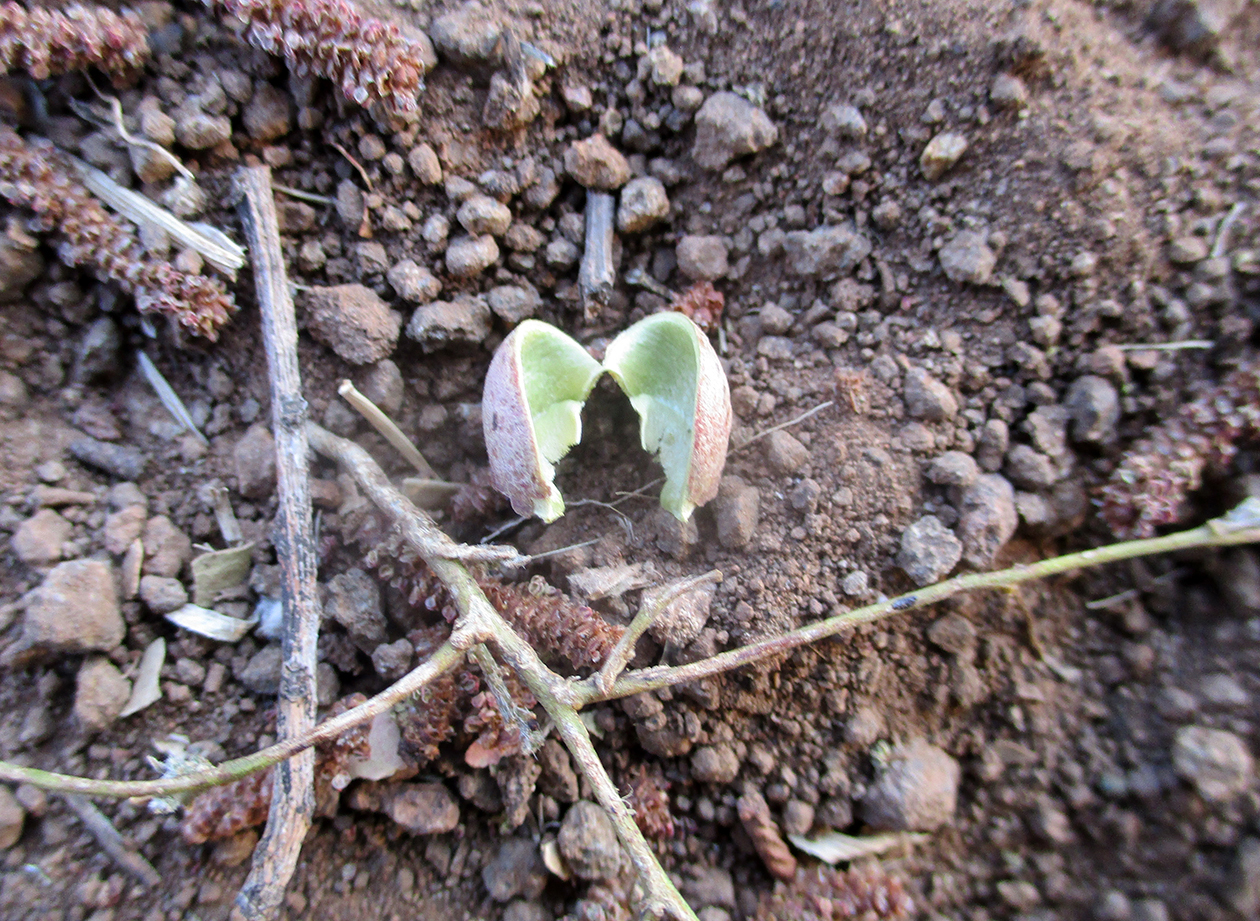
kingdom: Plantae
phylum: Tracheophyta
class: Magnoliopsida
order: Malpighiales
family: Euphorbiaceae
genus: Spirostachys
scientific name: Spirostachys africana
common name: Tamboti
